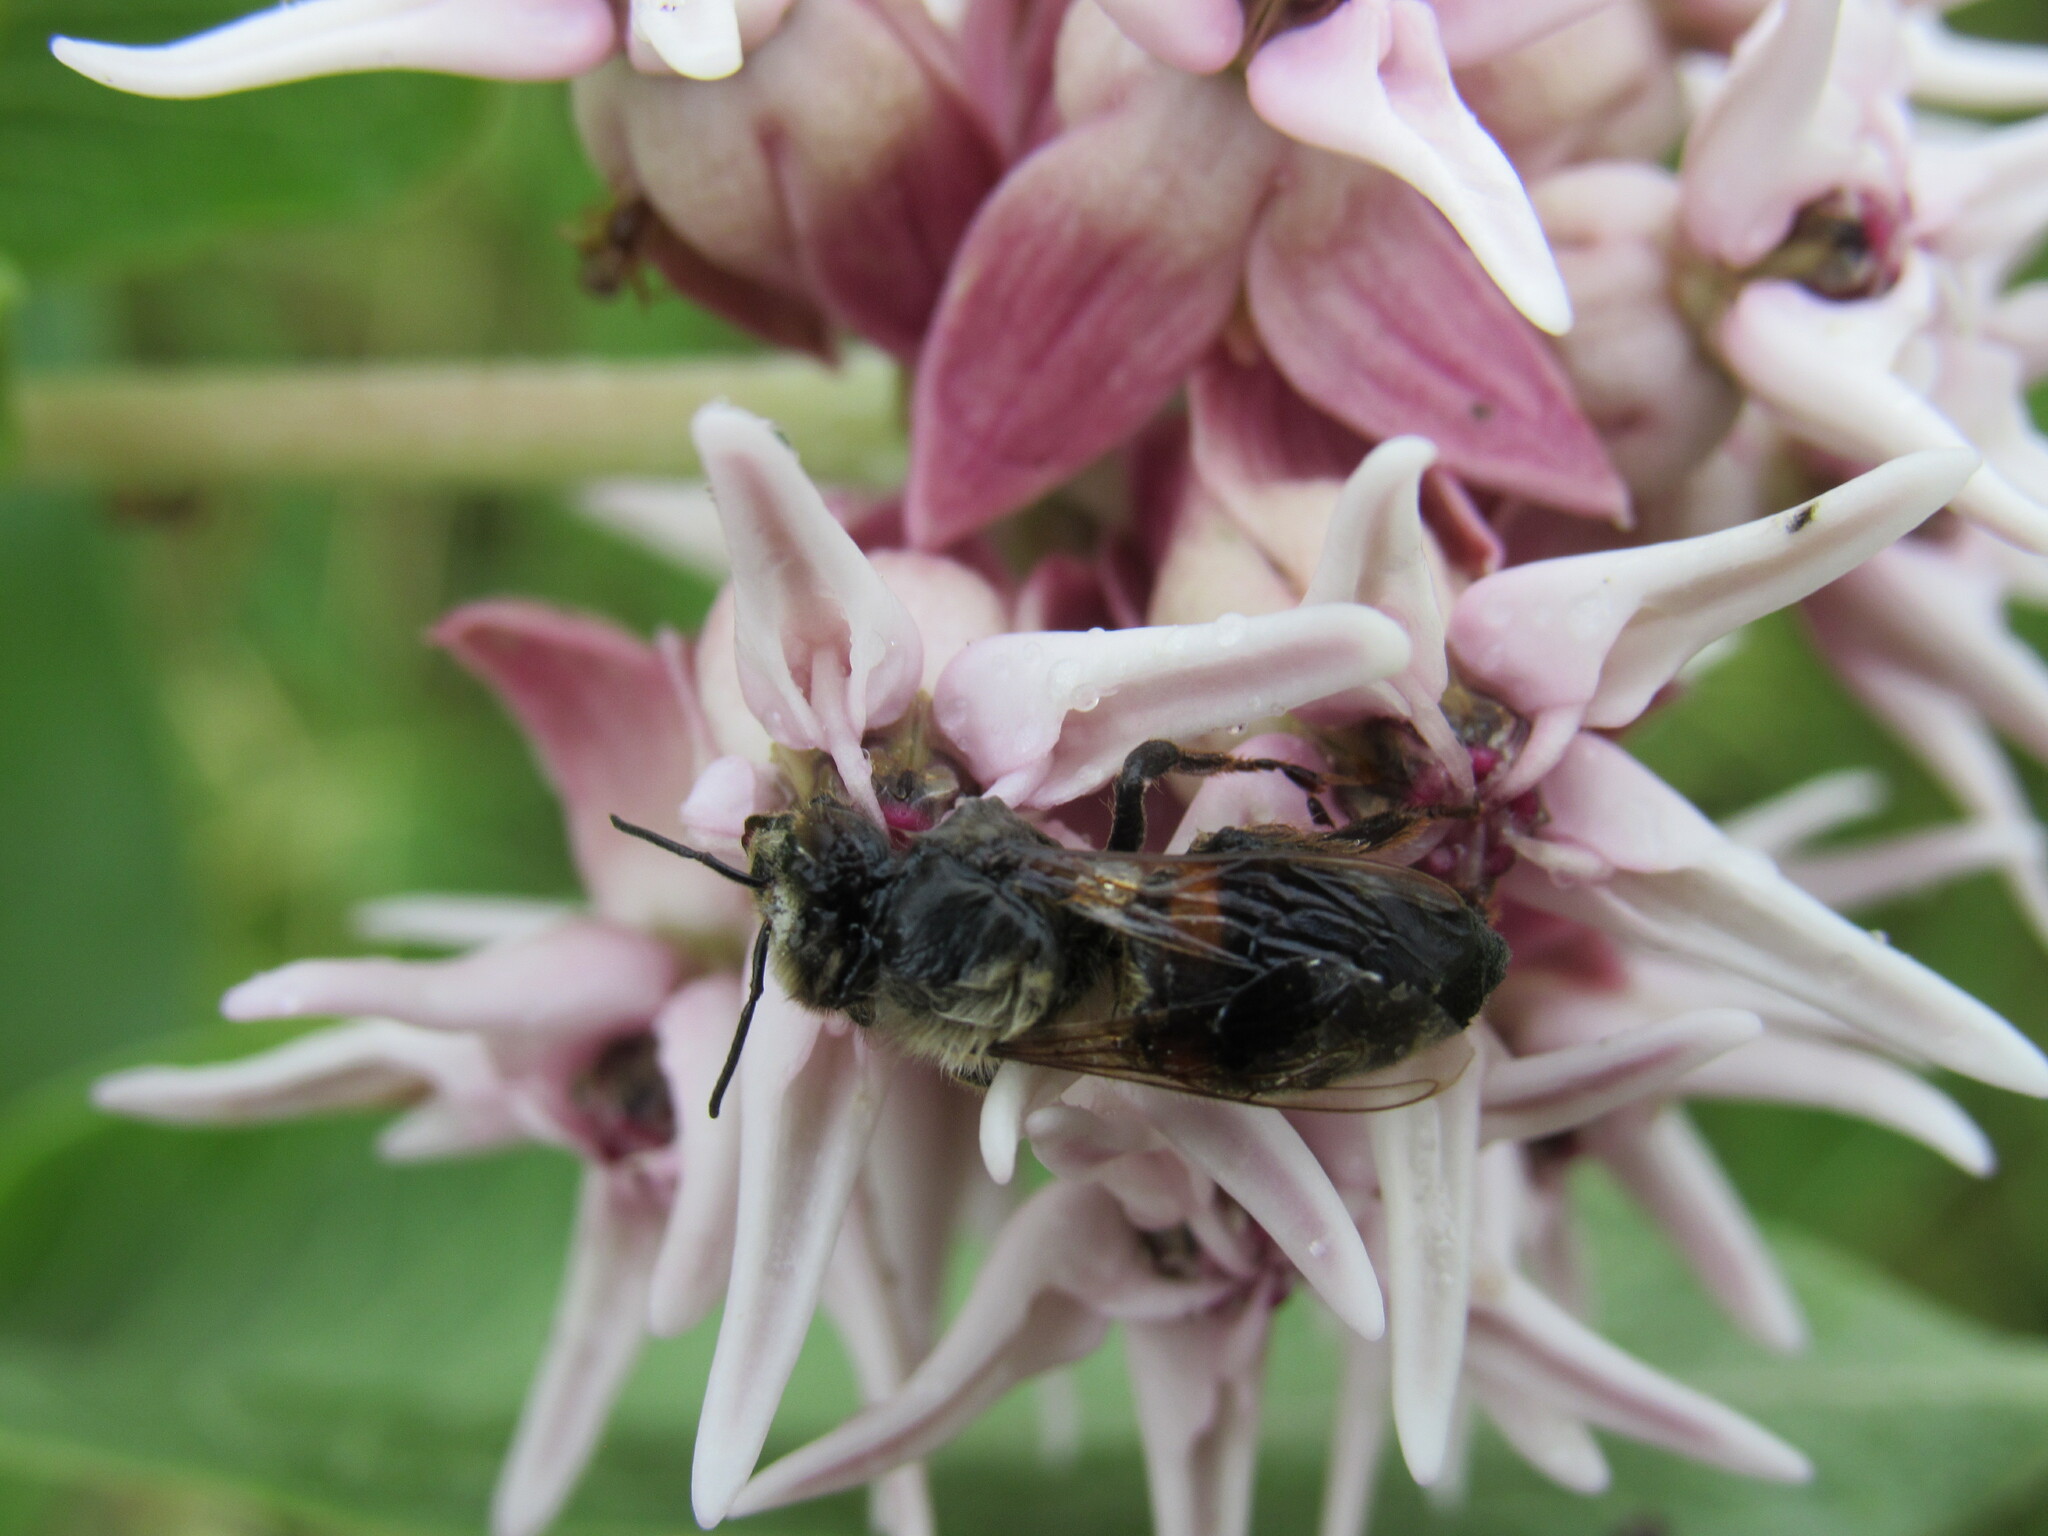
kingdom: Animalia
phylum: Arthropoda
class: Insecta
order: Hymenoptera
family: Apidae
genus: Apis
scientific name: Apis mellifera
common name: Honey bee
